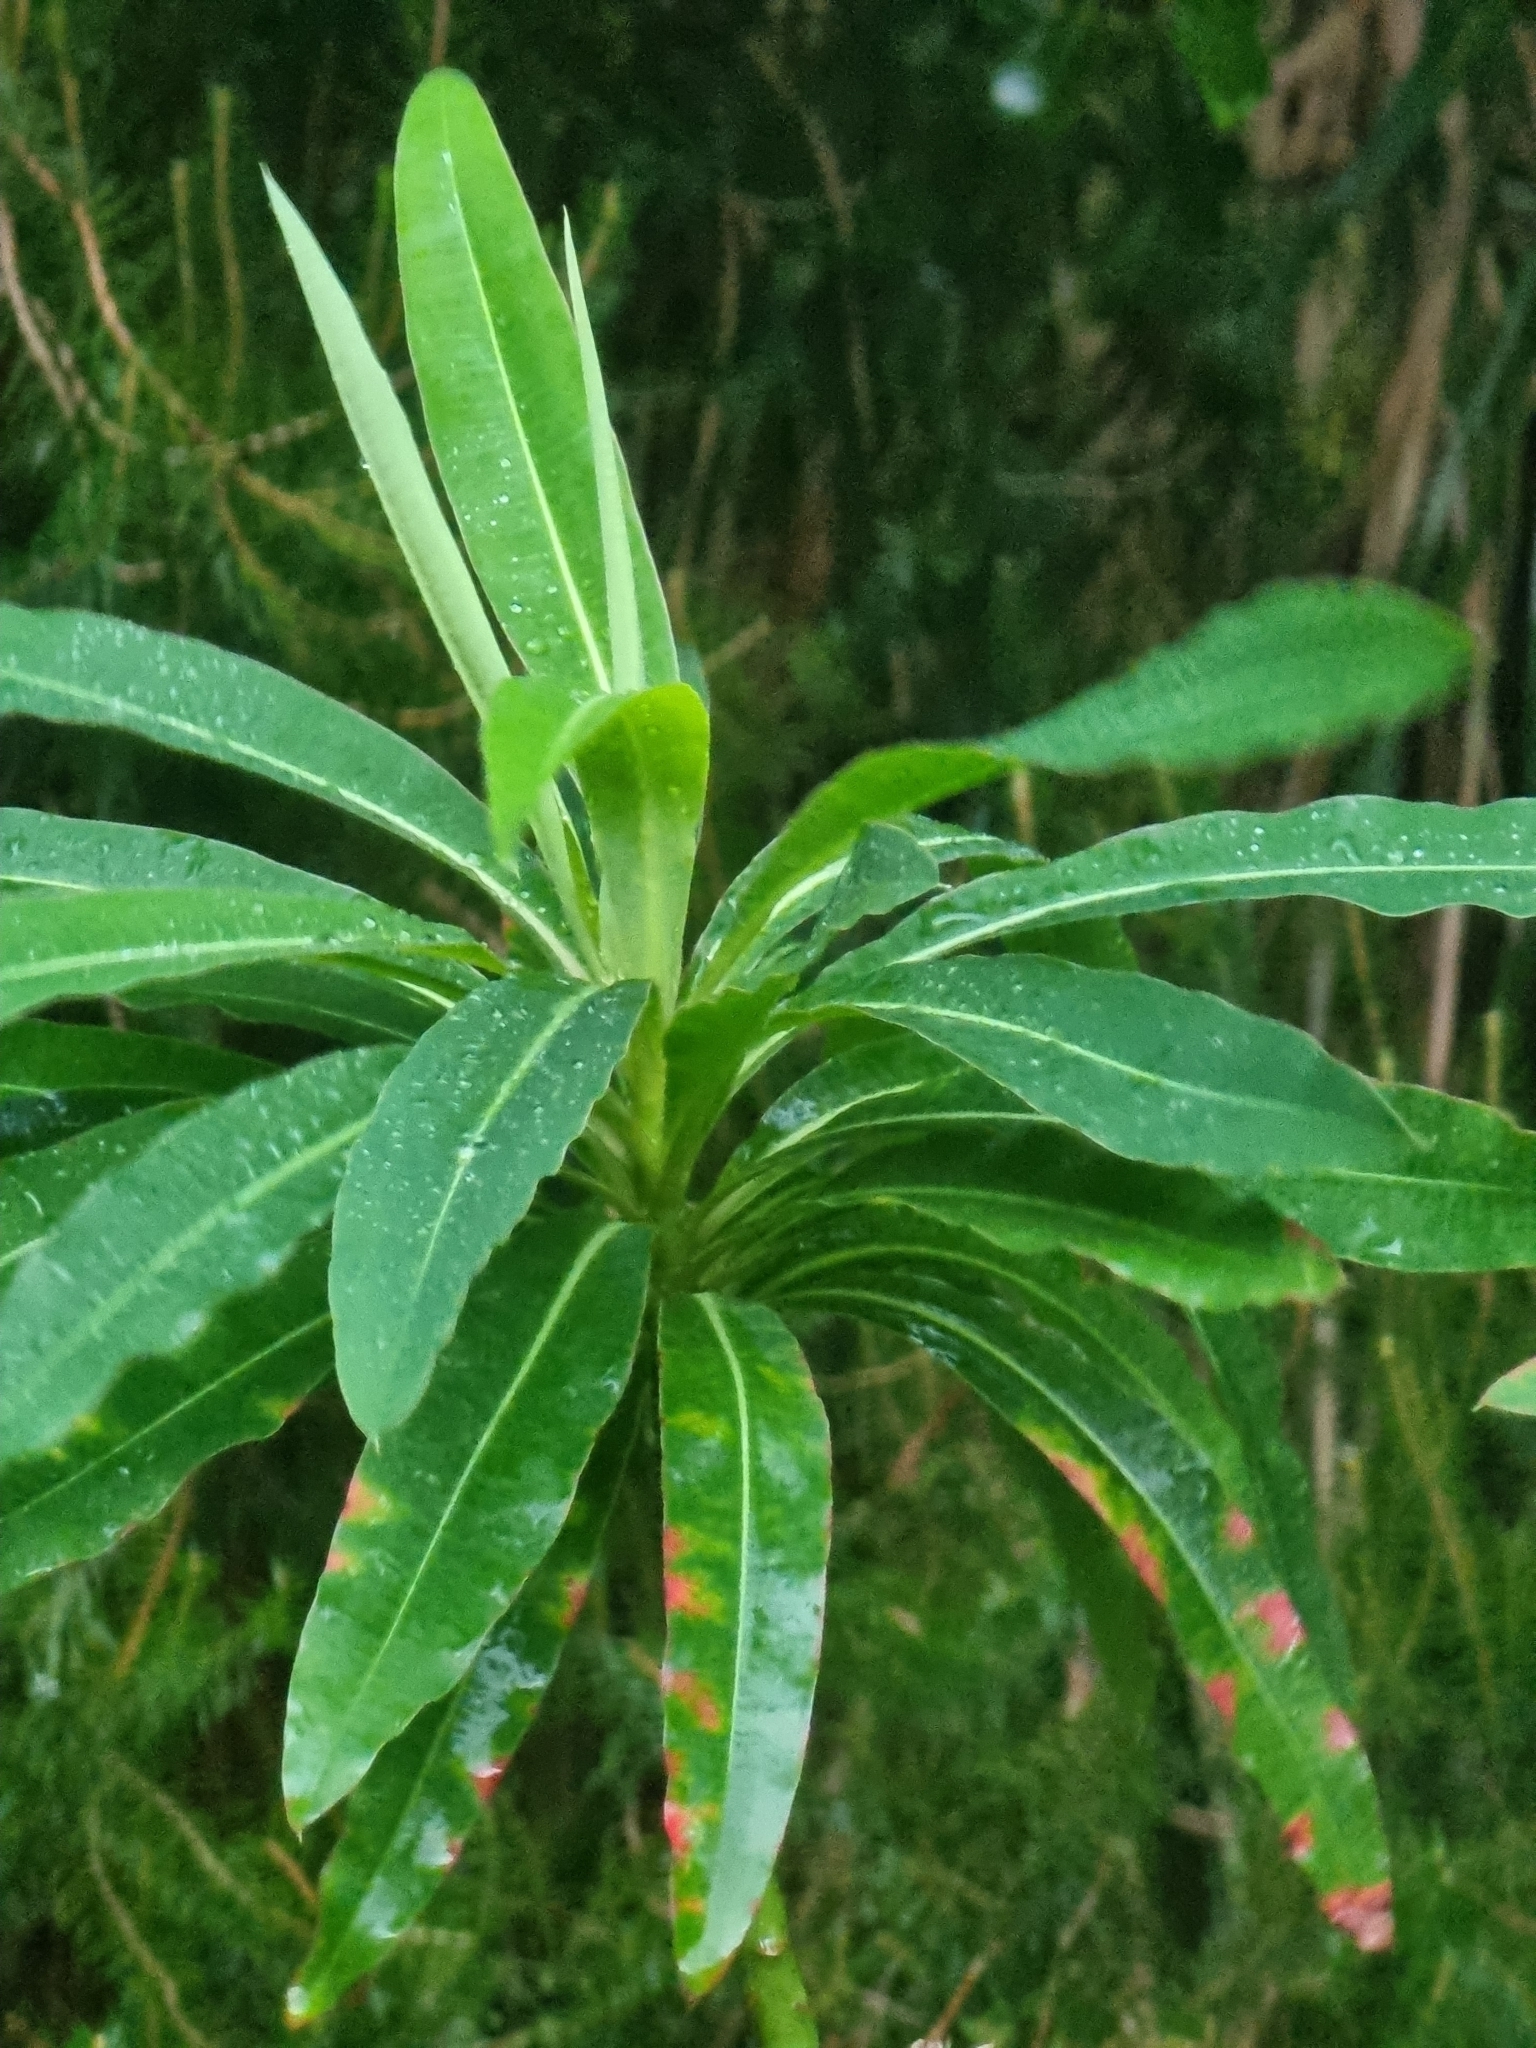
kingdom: Plantae
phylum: Tracheophyta
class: Magnoliopsida
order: Malpighiales
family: Euphorbiaceae
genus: Euphorbia
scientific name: Euphorbia mellifera
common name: Canary spurge
